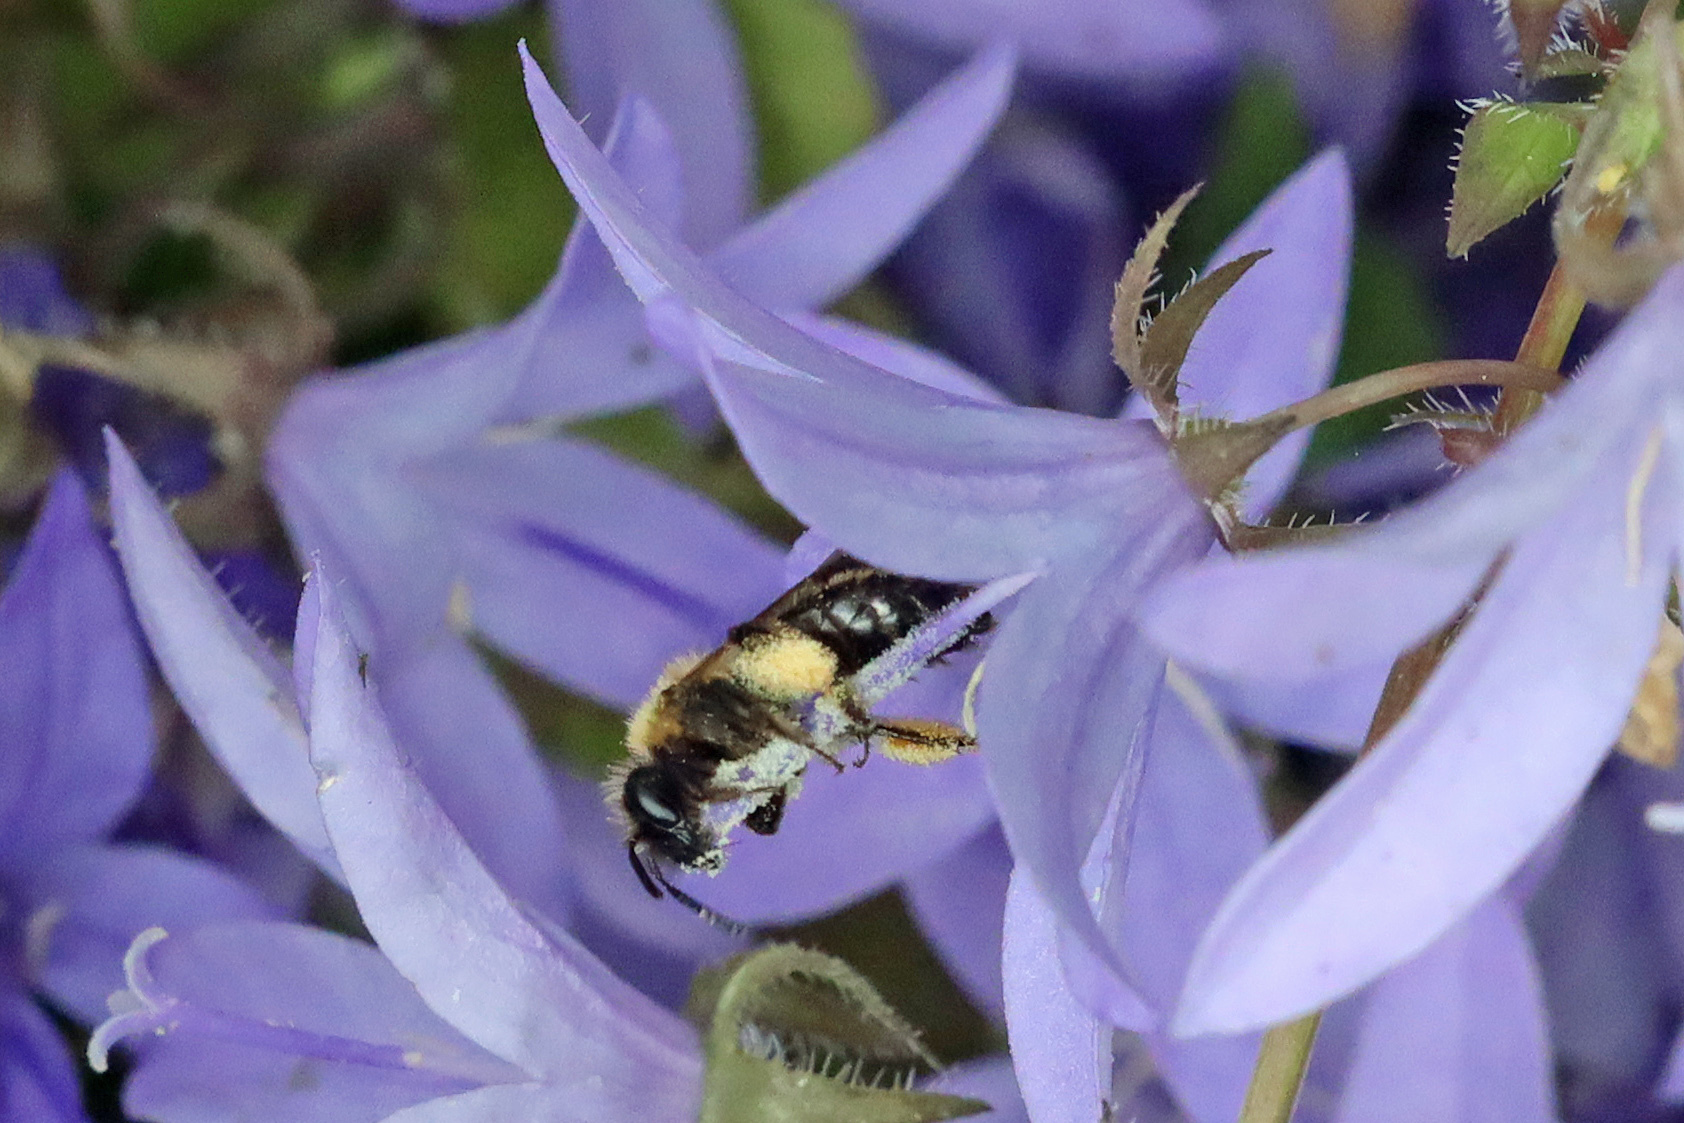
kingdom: Animalia
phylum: Arthropoda
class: Insecta
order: Hymenoptera
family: Andrenidae
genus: Andrena
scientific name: Andrena bicolor
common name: Gwynne's mining bee
